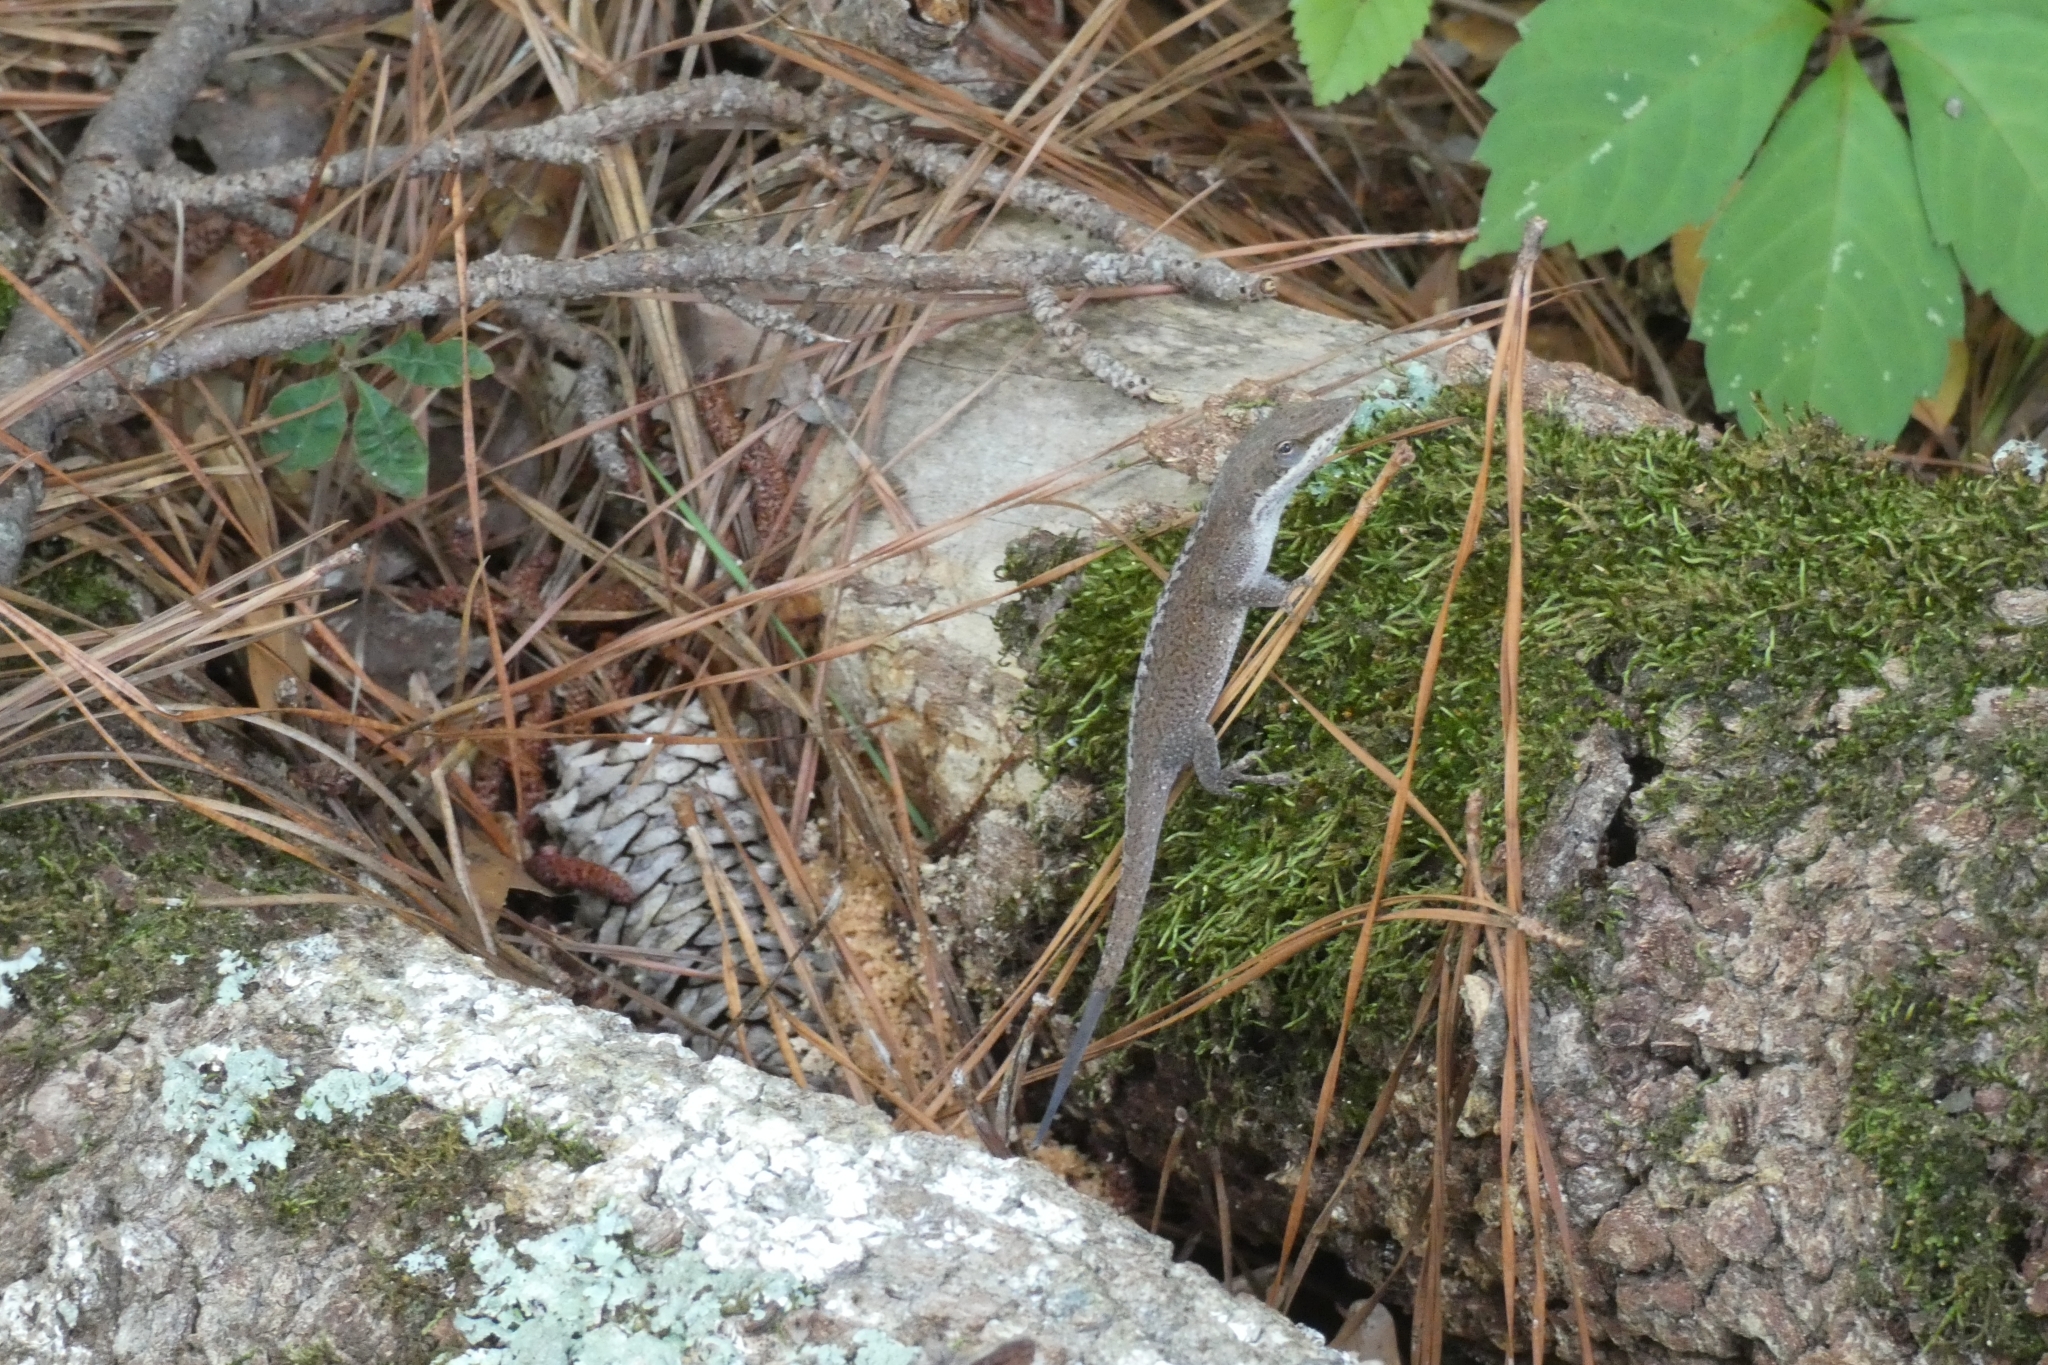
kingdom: Animalia
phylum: Chordata
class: Squamata
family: Dactyloidae
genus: Anolis
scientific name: Anolis carolinensis
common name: Green anole
